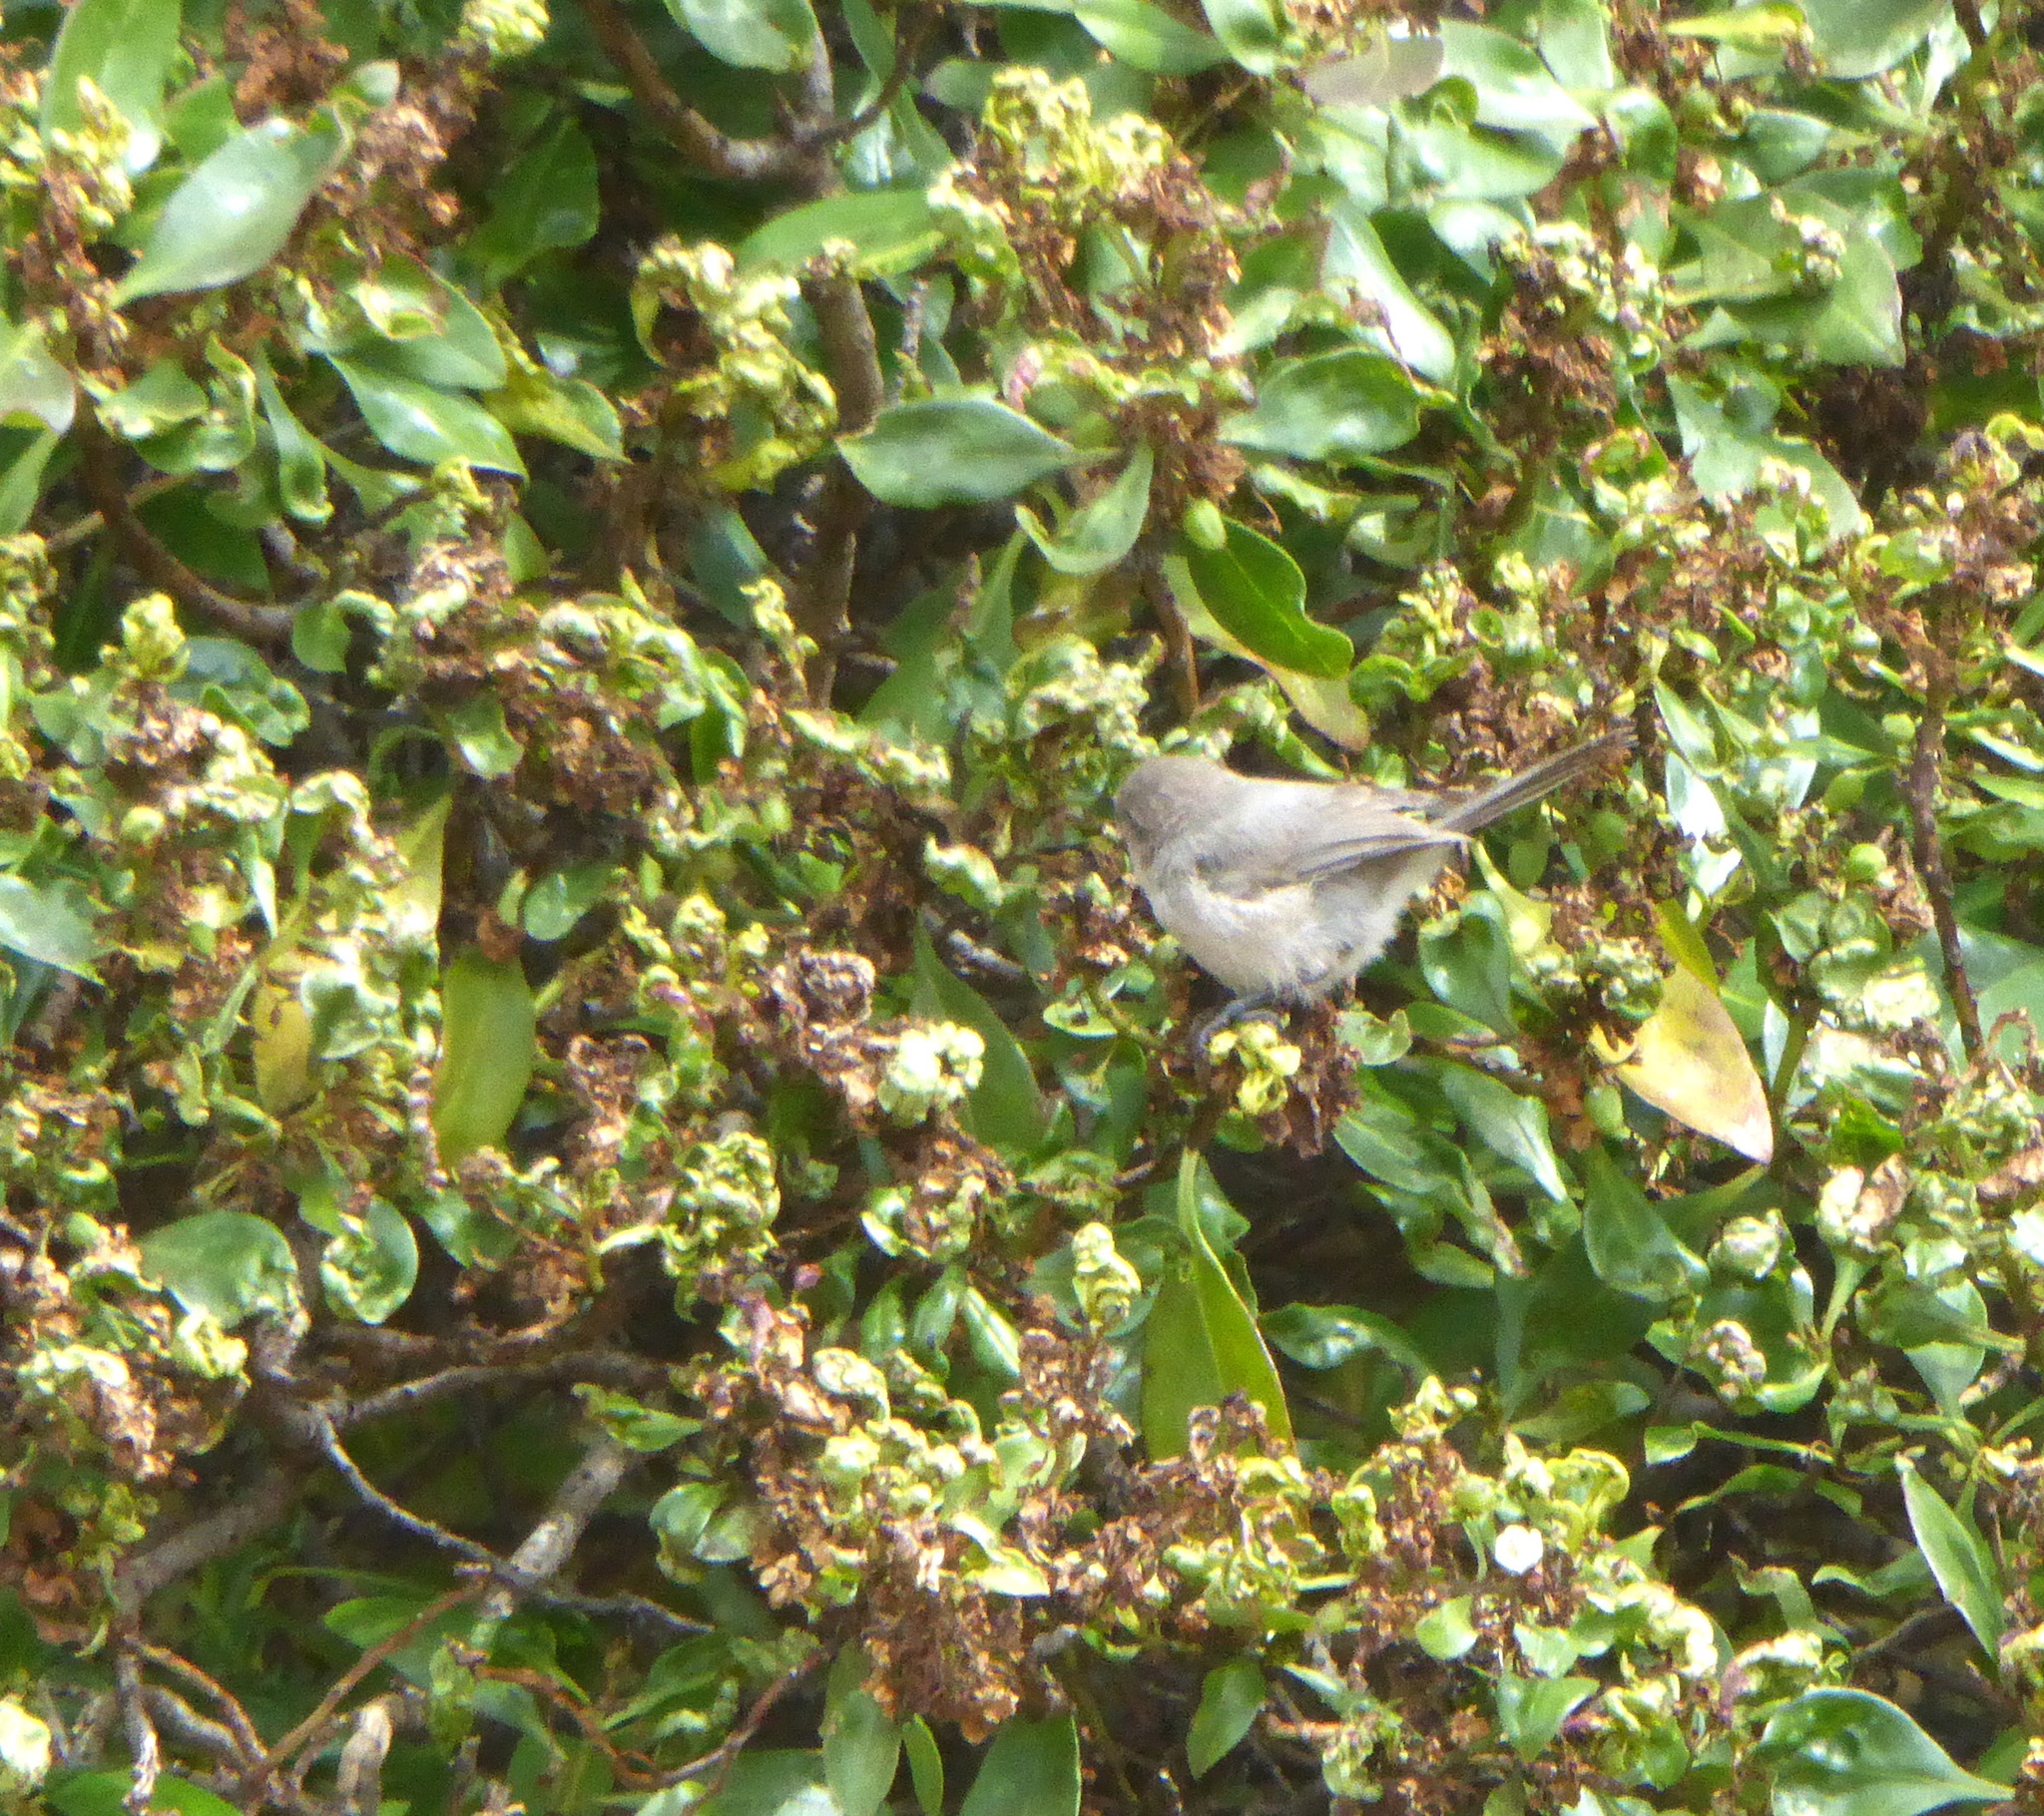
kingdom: Animalia
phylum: Chordata
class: Aves
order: Passeriformes
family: Aegithalidae
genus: Psaltriparus
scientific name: Psaltriparus minimus
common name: American bushtit
